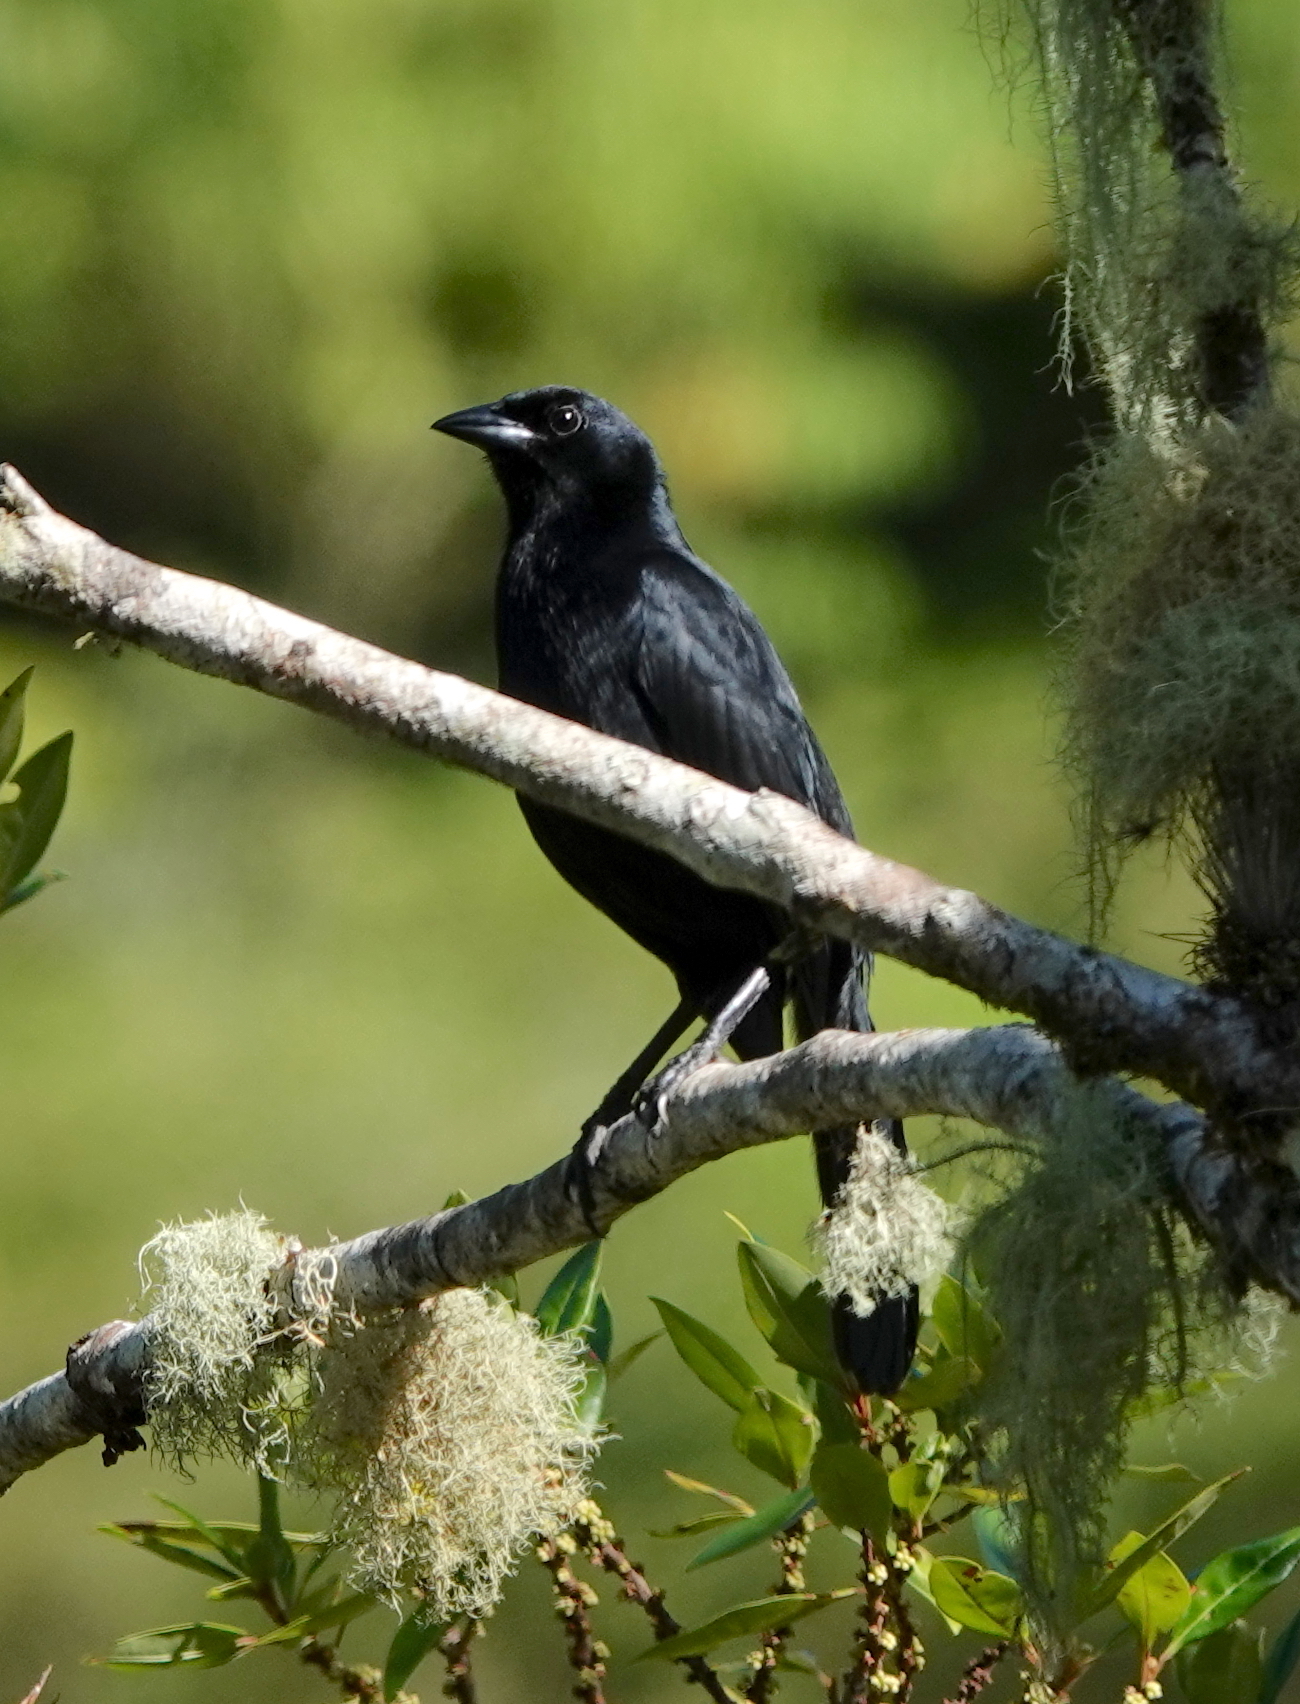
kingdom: Animalia
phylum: Chordata
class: Aves
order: Passeriformes
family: Icteridae
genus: Dives
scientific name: Dives dives
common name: Melodious blackbird
